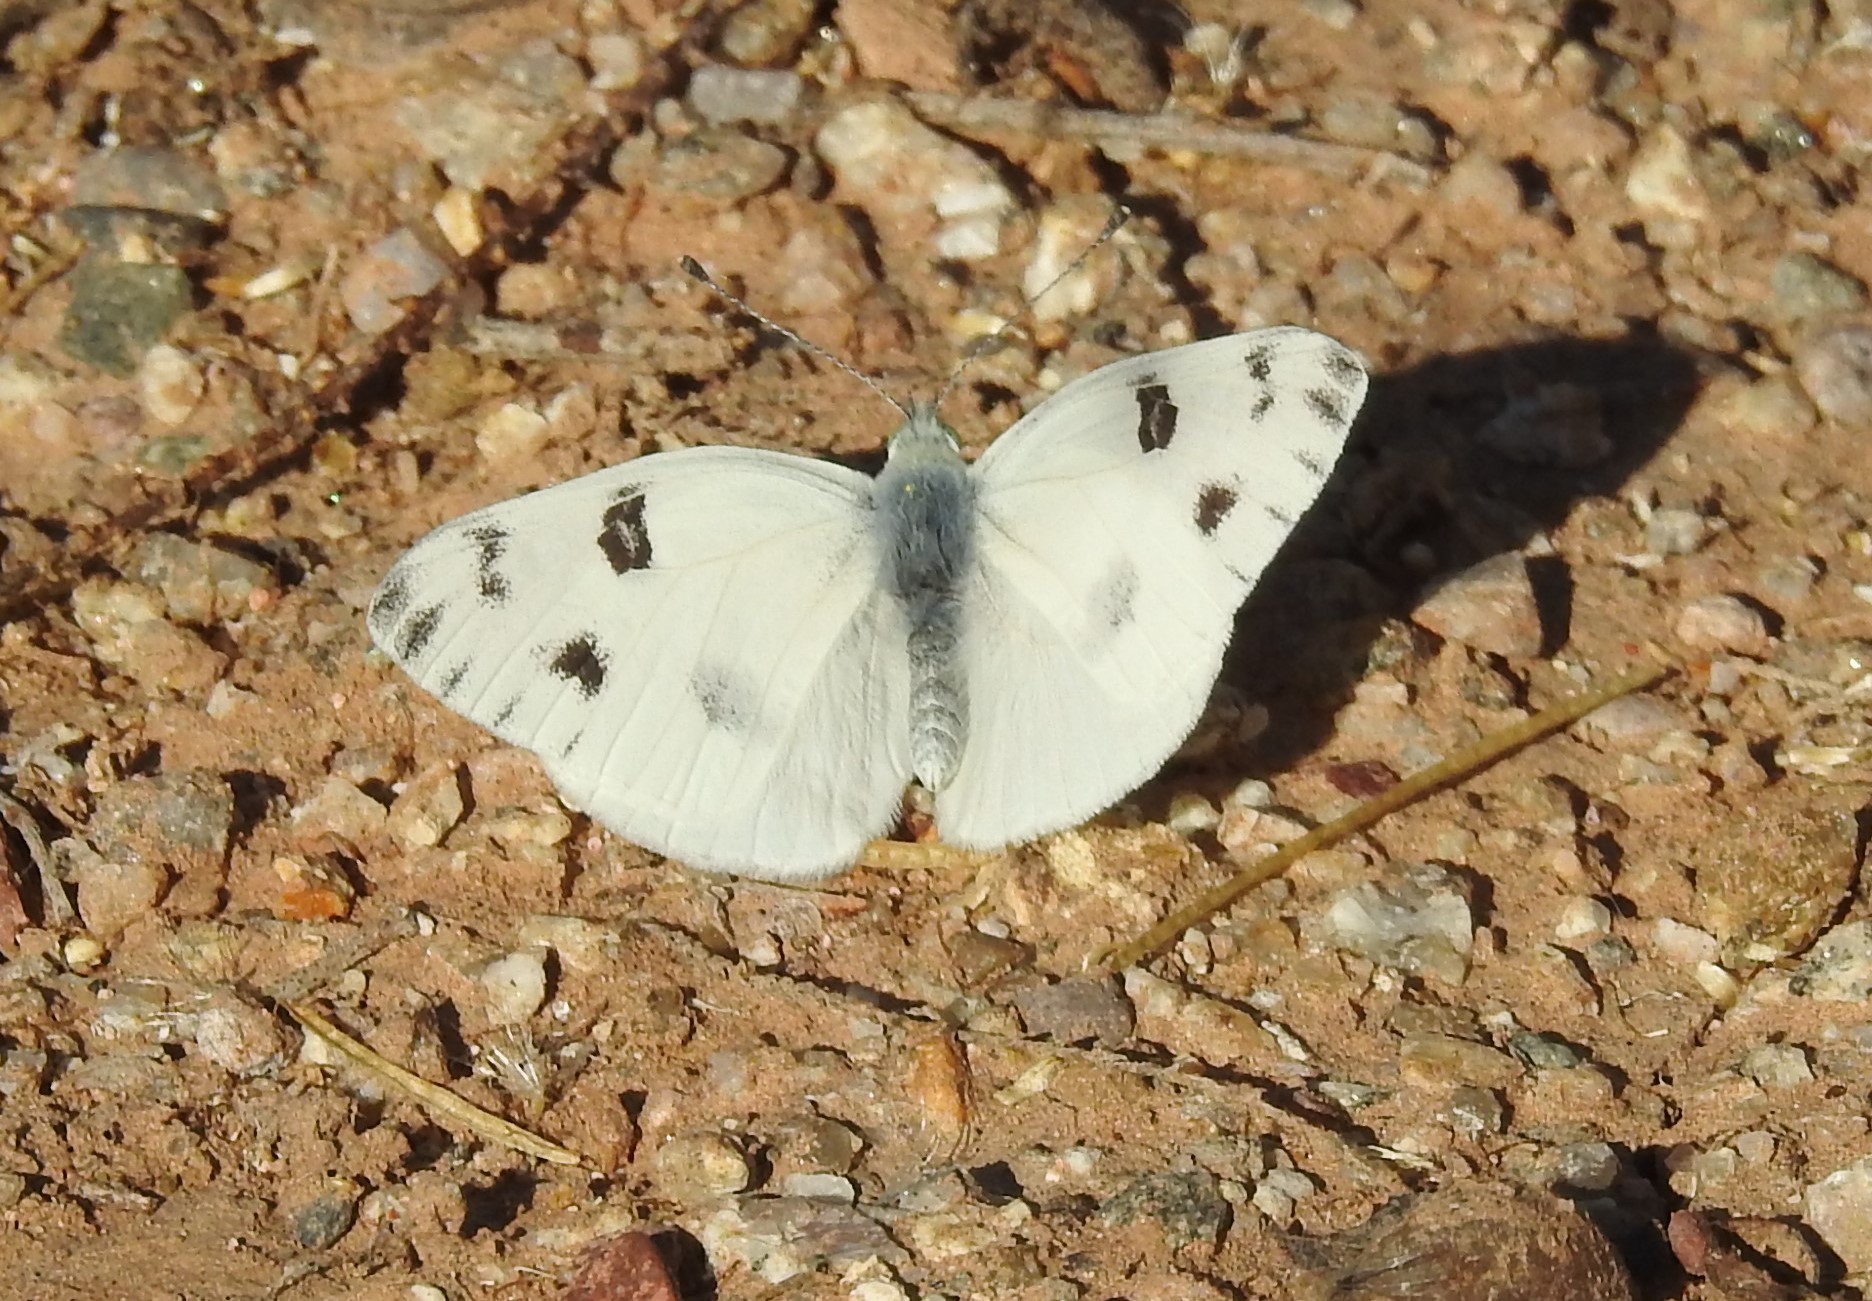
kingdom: Animalia
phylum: Arthropoda
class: Insecta
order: Lepidoptera
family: Pieridae
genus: Pontia
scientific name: Pontia protodice
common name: Checkered white
